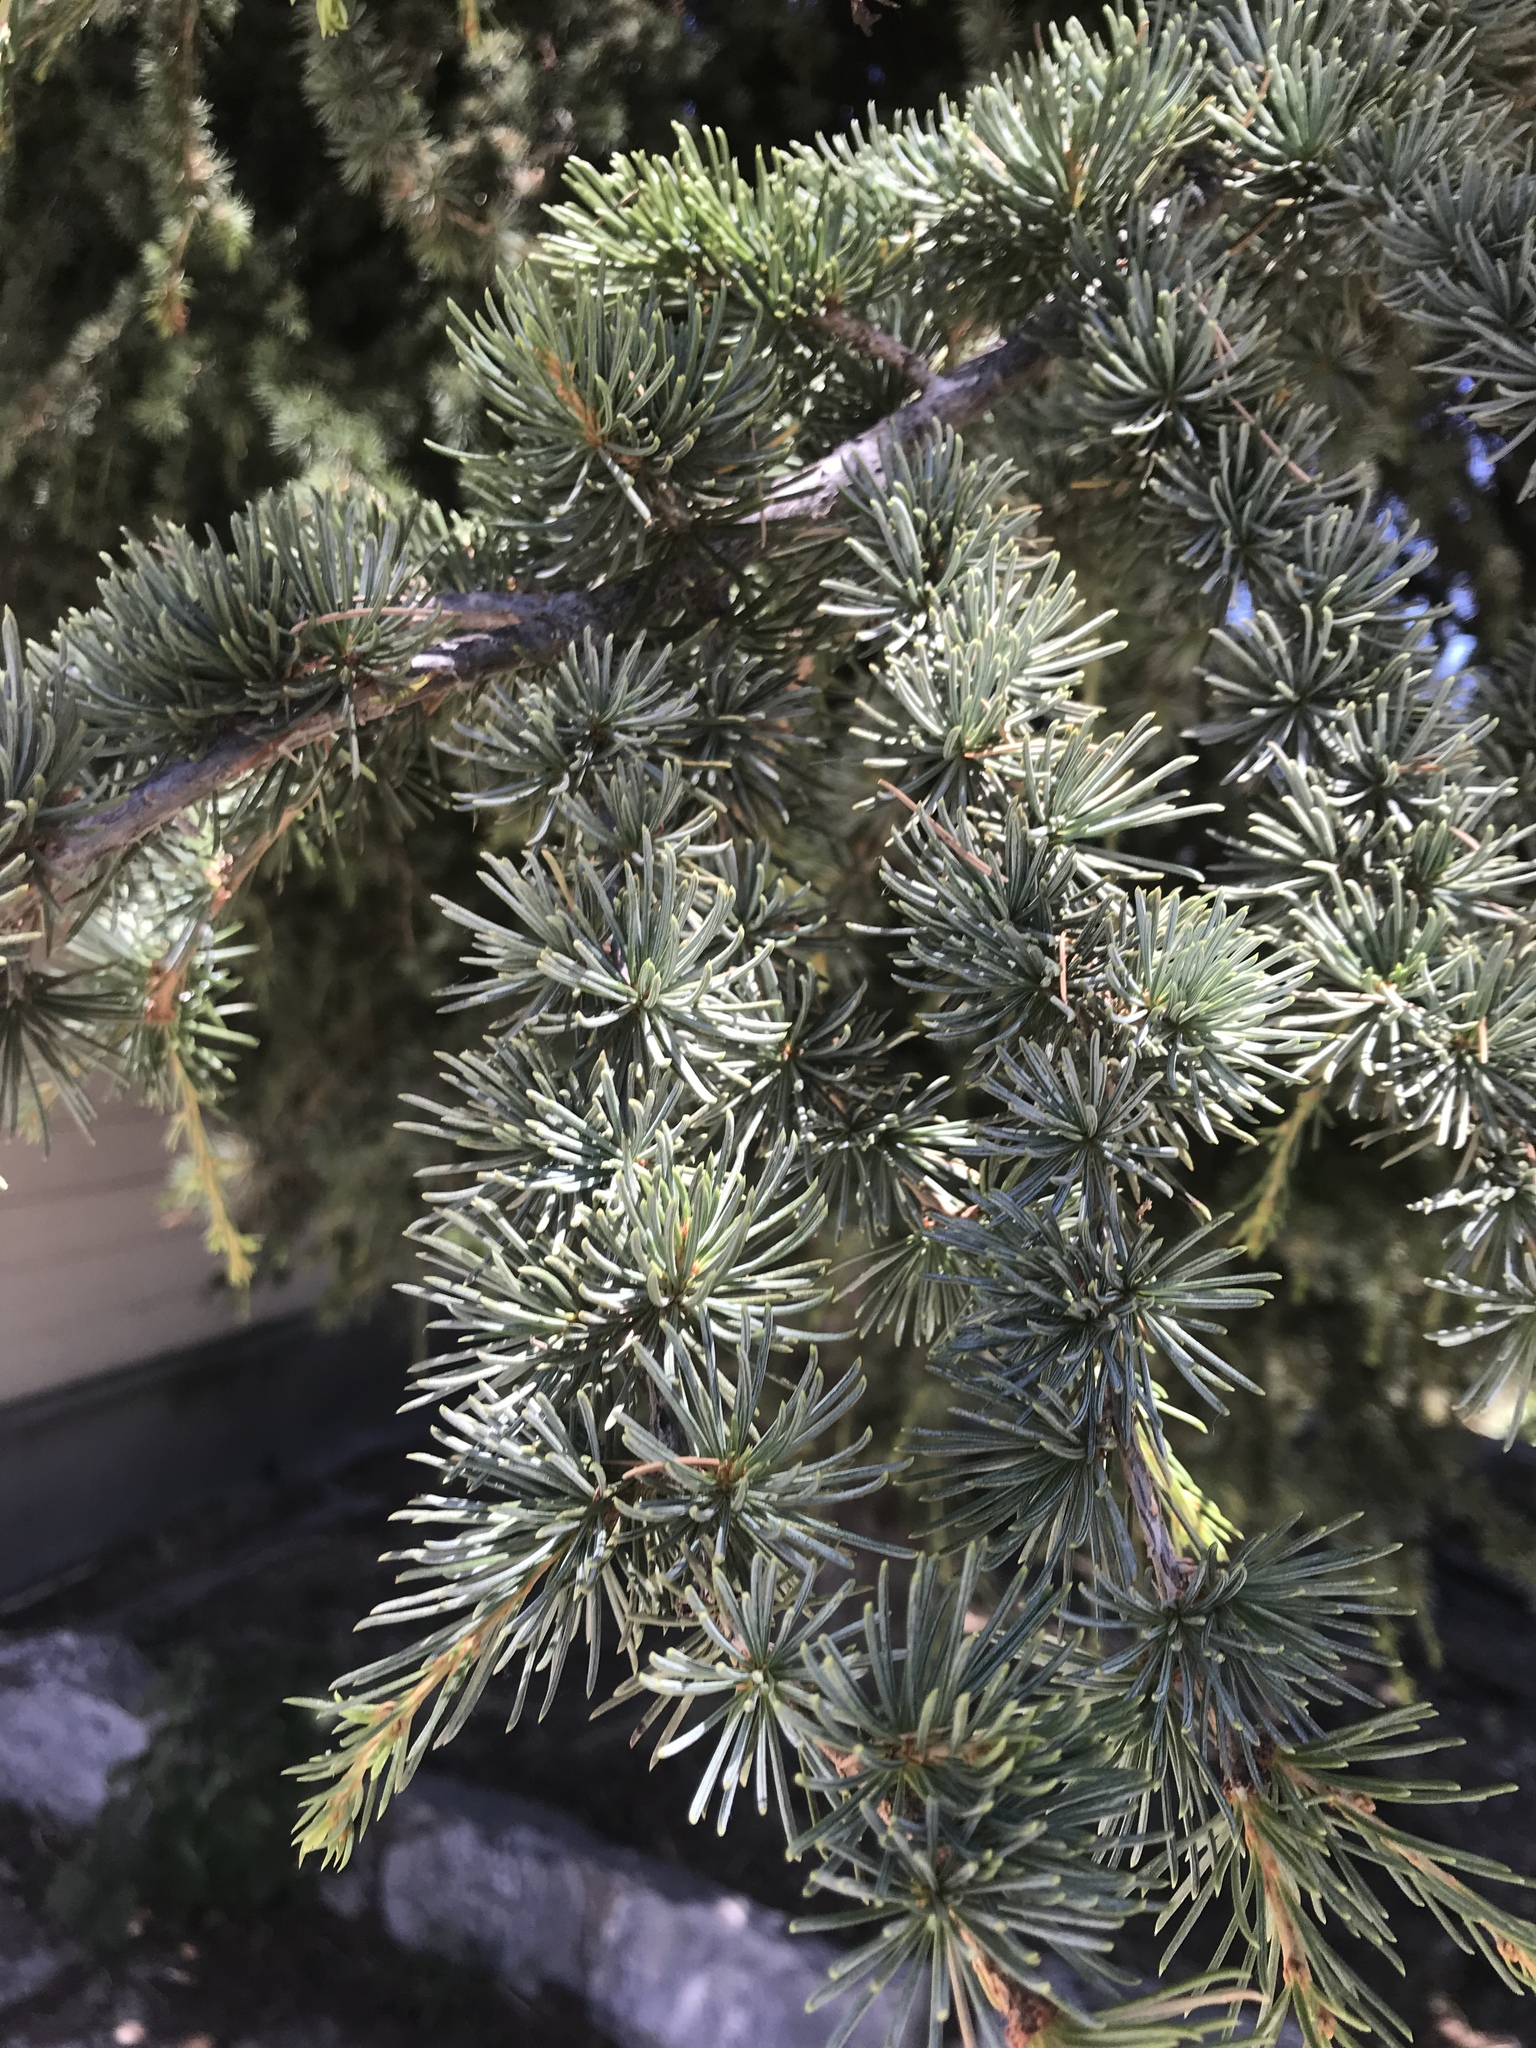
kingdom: Plantae
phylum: Tracheophyta
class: Pinopsida
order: Pinales
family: Pinaceae
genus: Cedrus
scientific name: Cedrus libani
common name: Cedar-of-lebanon
